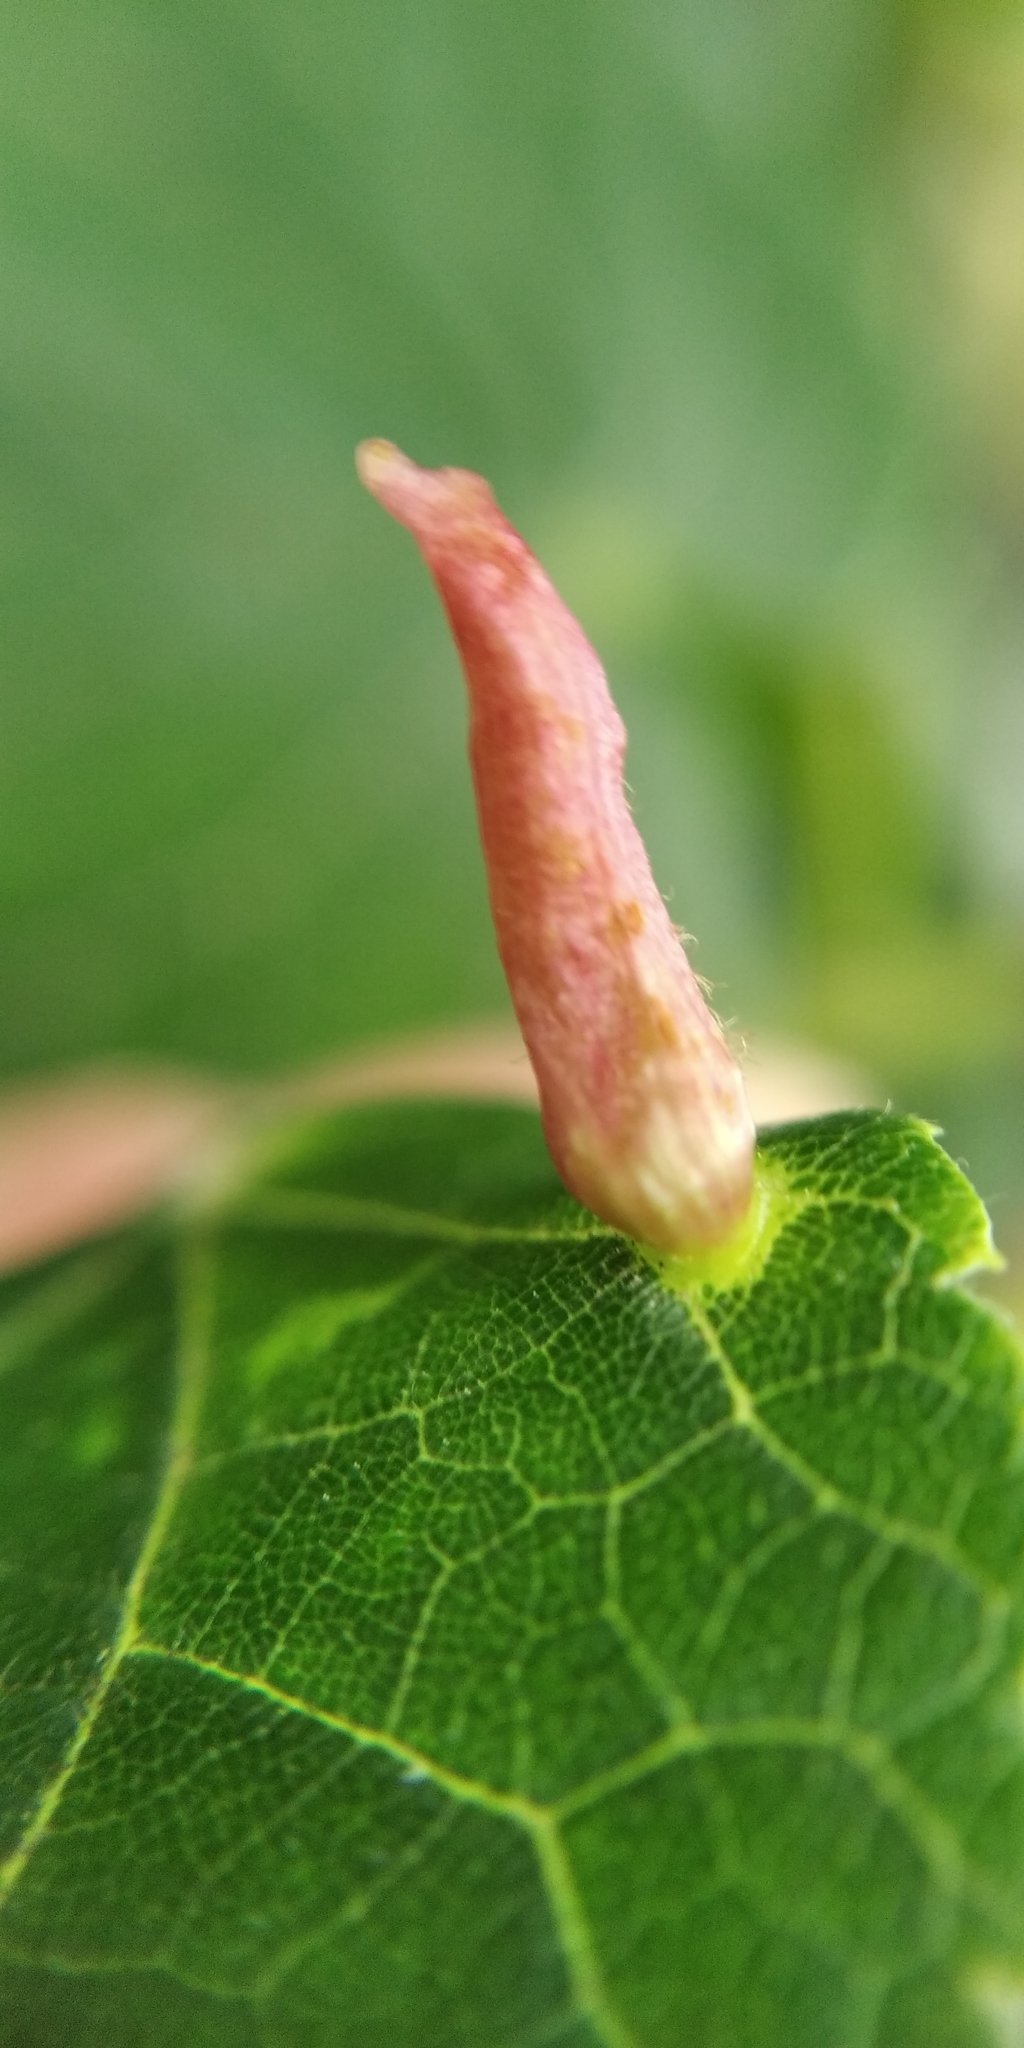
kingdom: Animalia
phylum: Arthropoda
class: Arachnida
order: Trombidiformes
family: Eriophyidae
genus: Eriophyes
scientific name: Eriophyes tiliae
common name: Red nail gall mite
